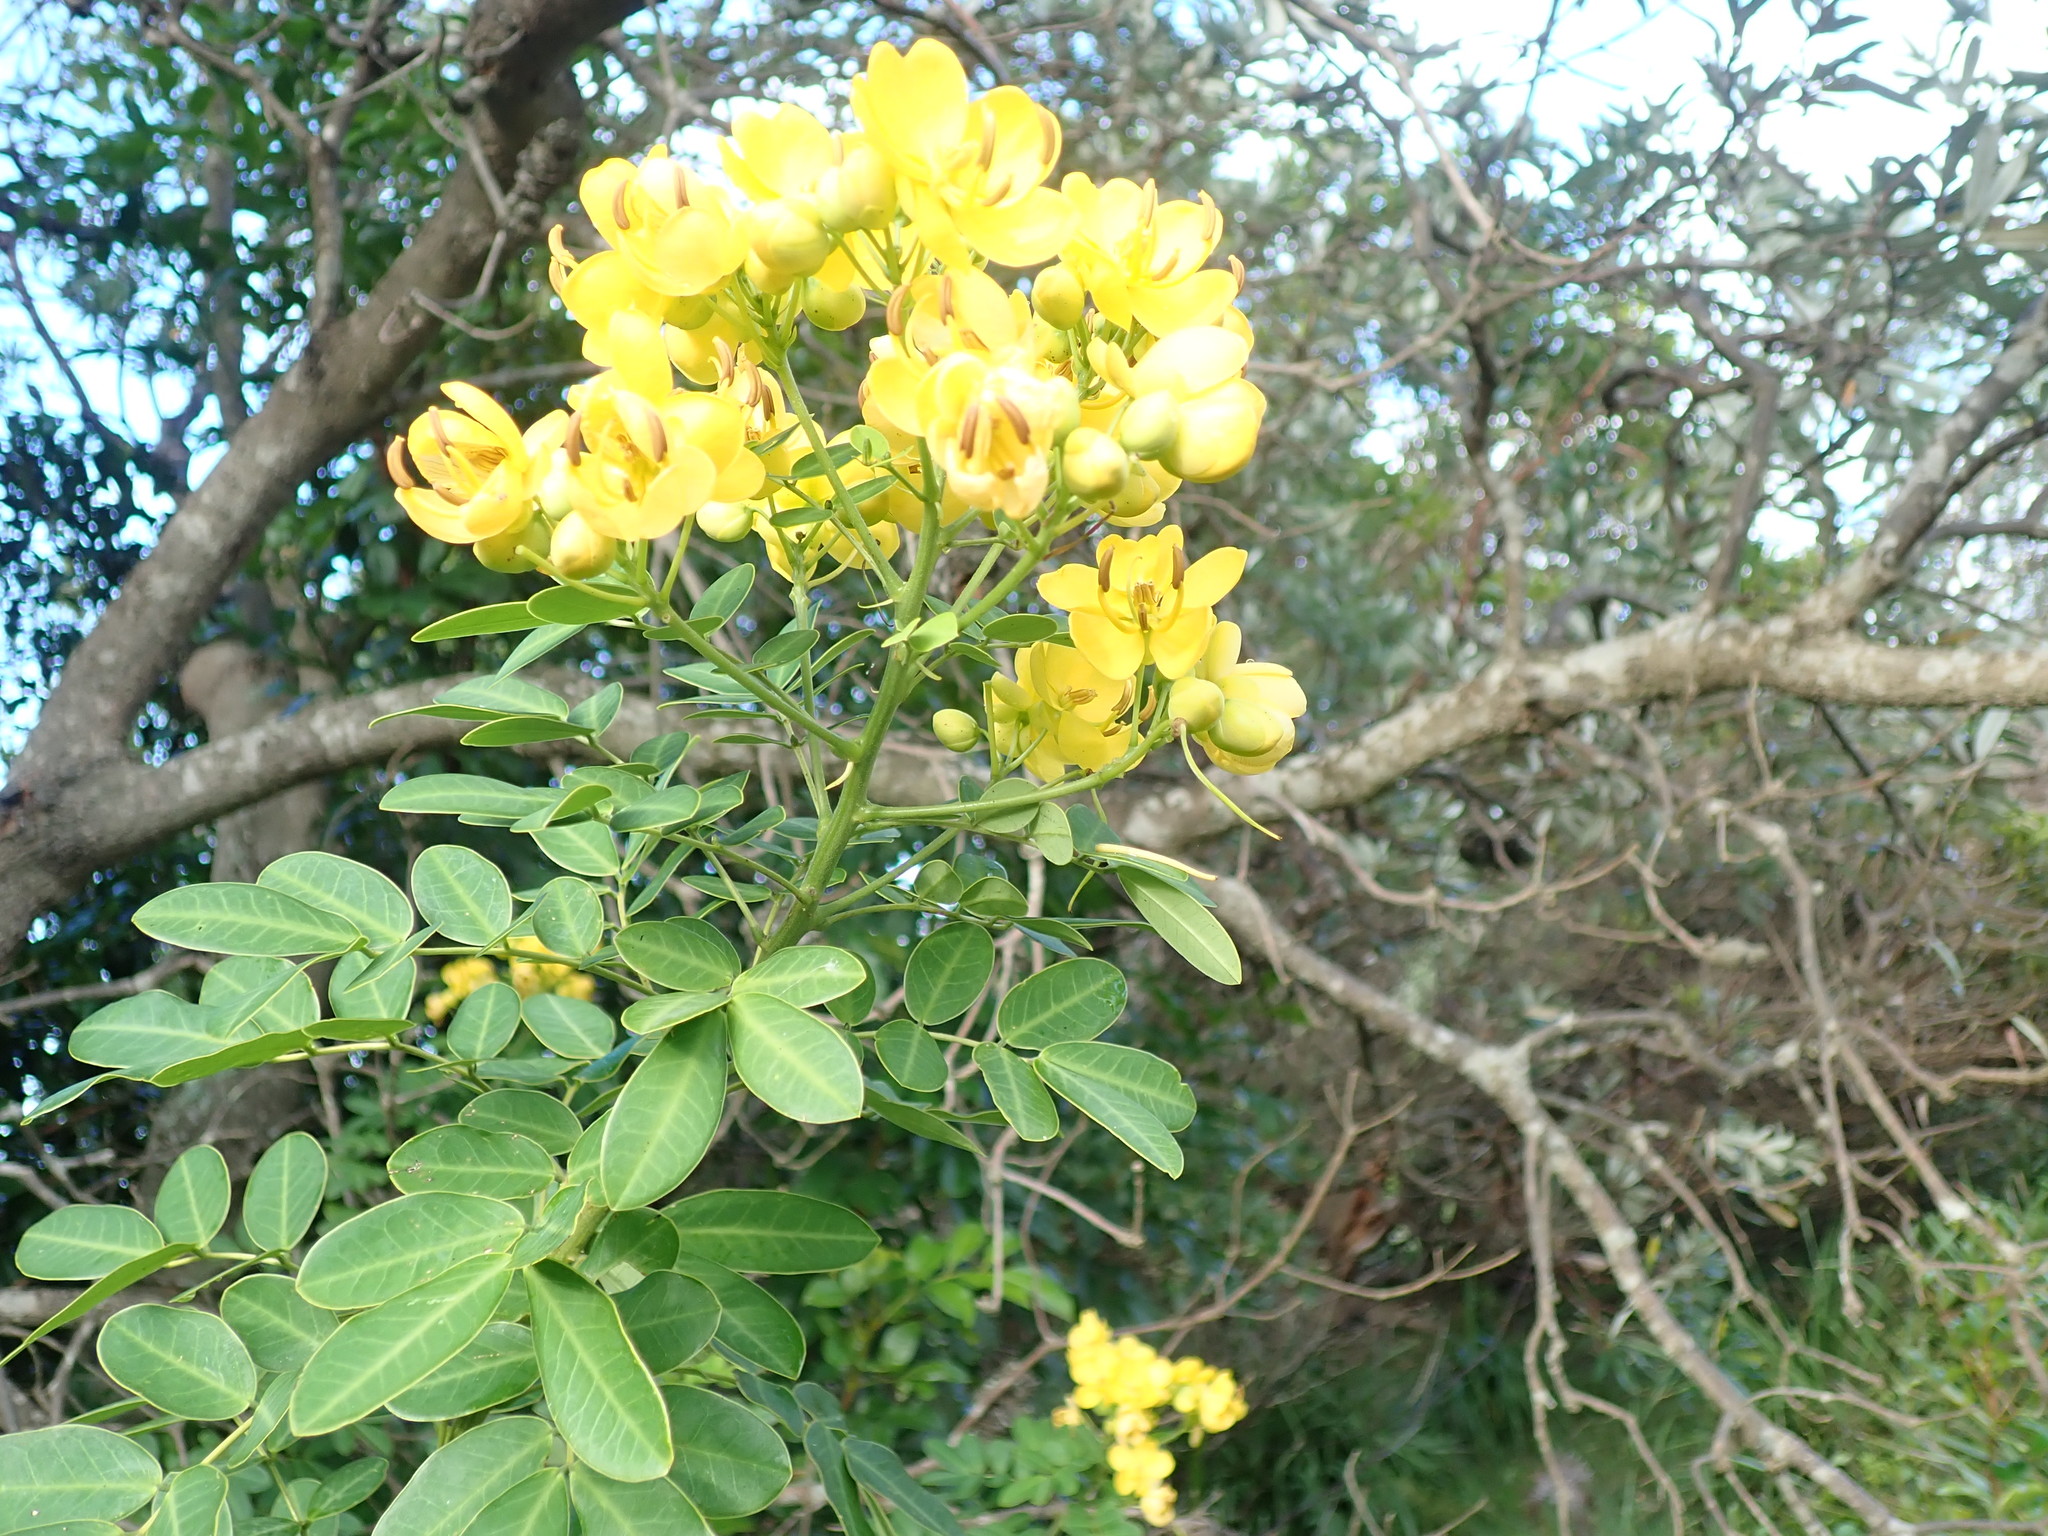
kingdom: Plantae
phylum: Tracheophyta
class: Magnoliopsida
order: Fabales
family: Fabaceae
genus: Senna
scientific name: Senna pendula
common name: Easter cassia
